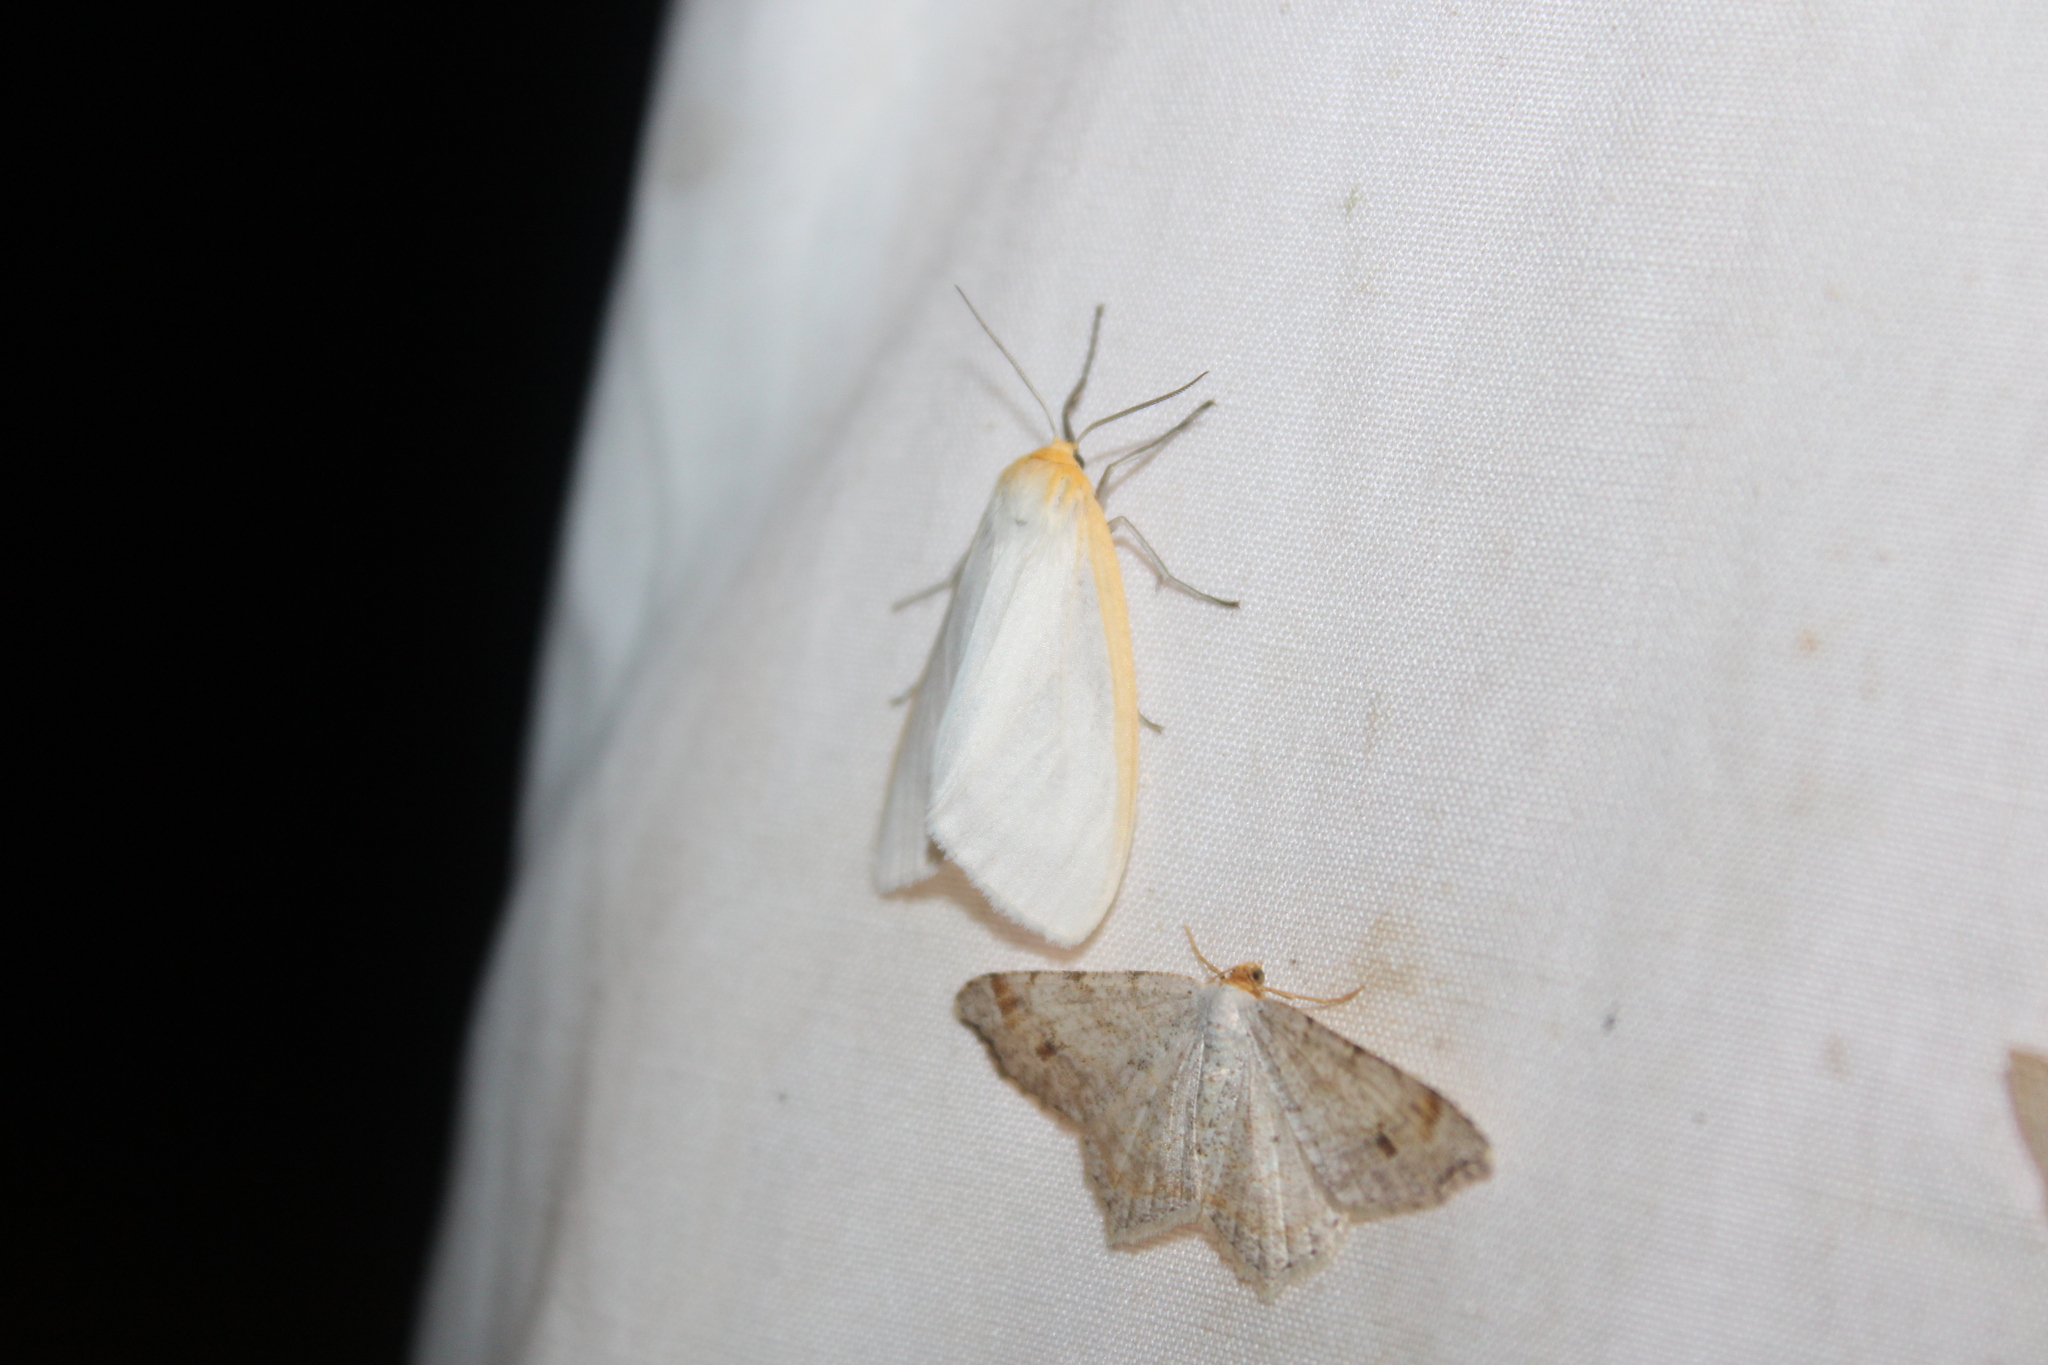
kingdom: Animalia
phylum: Arthropoda
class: Insecta
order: Lepidoptera
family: Erebidae
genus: Cycnia
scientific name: Cycnia tenera
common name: Delicate cycnia moth
